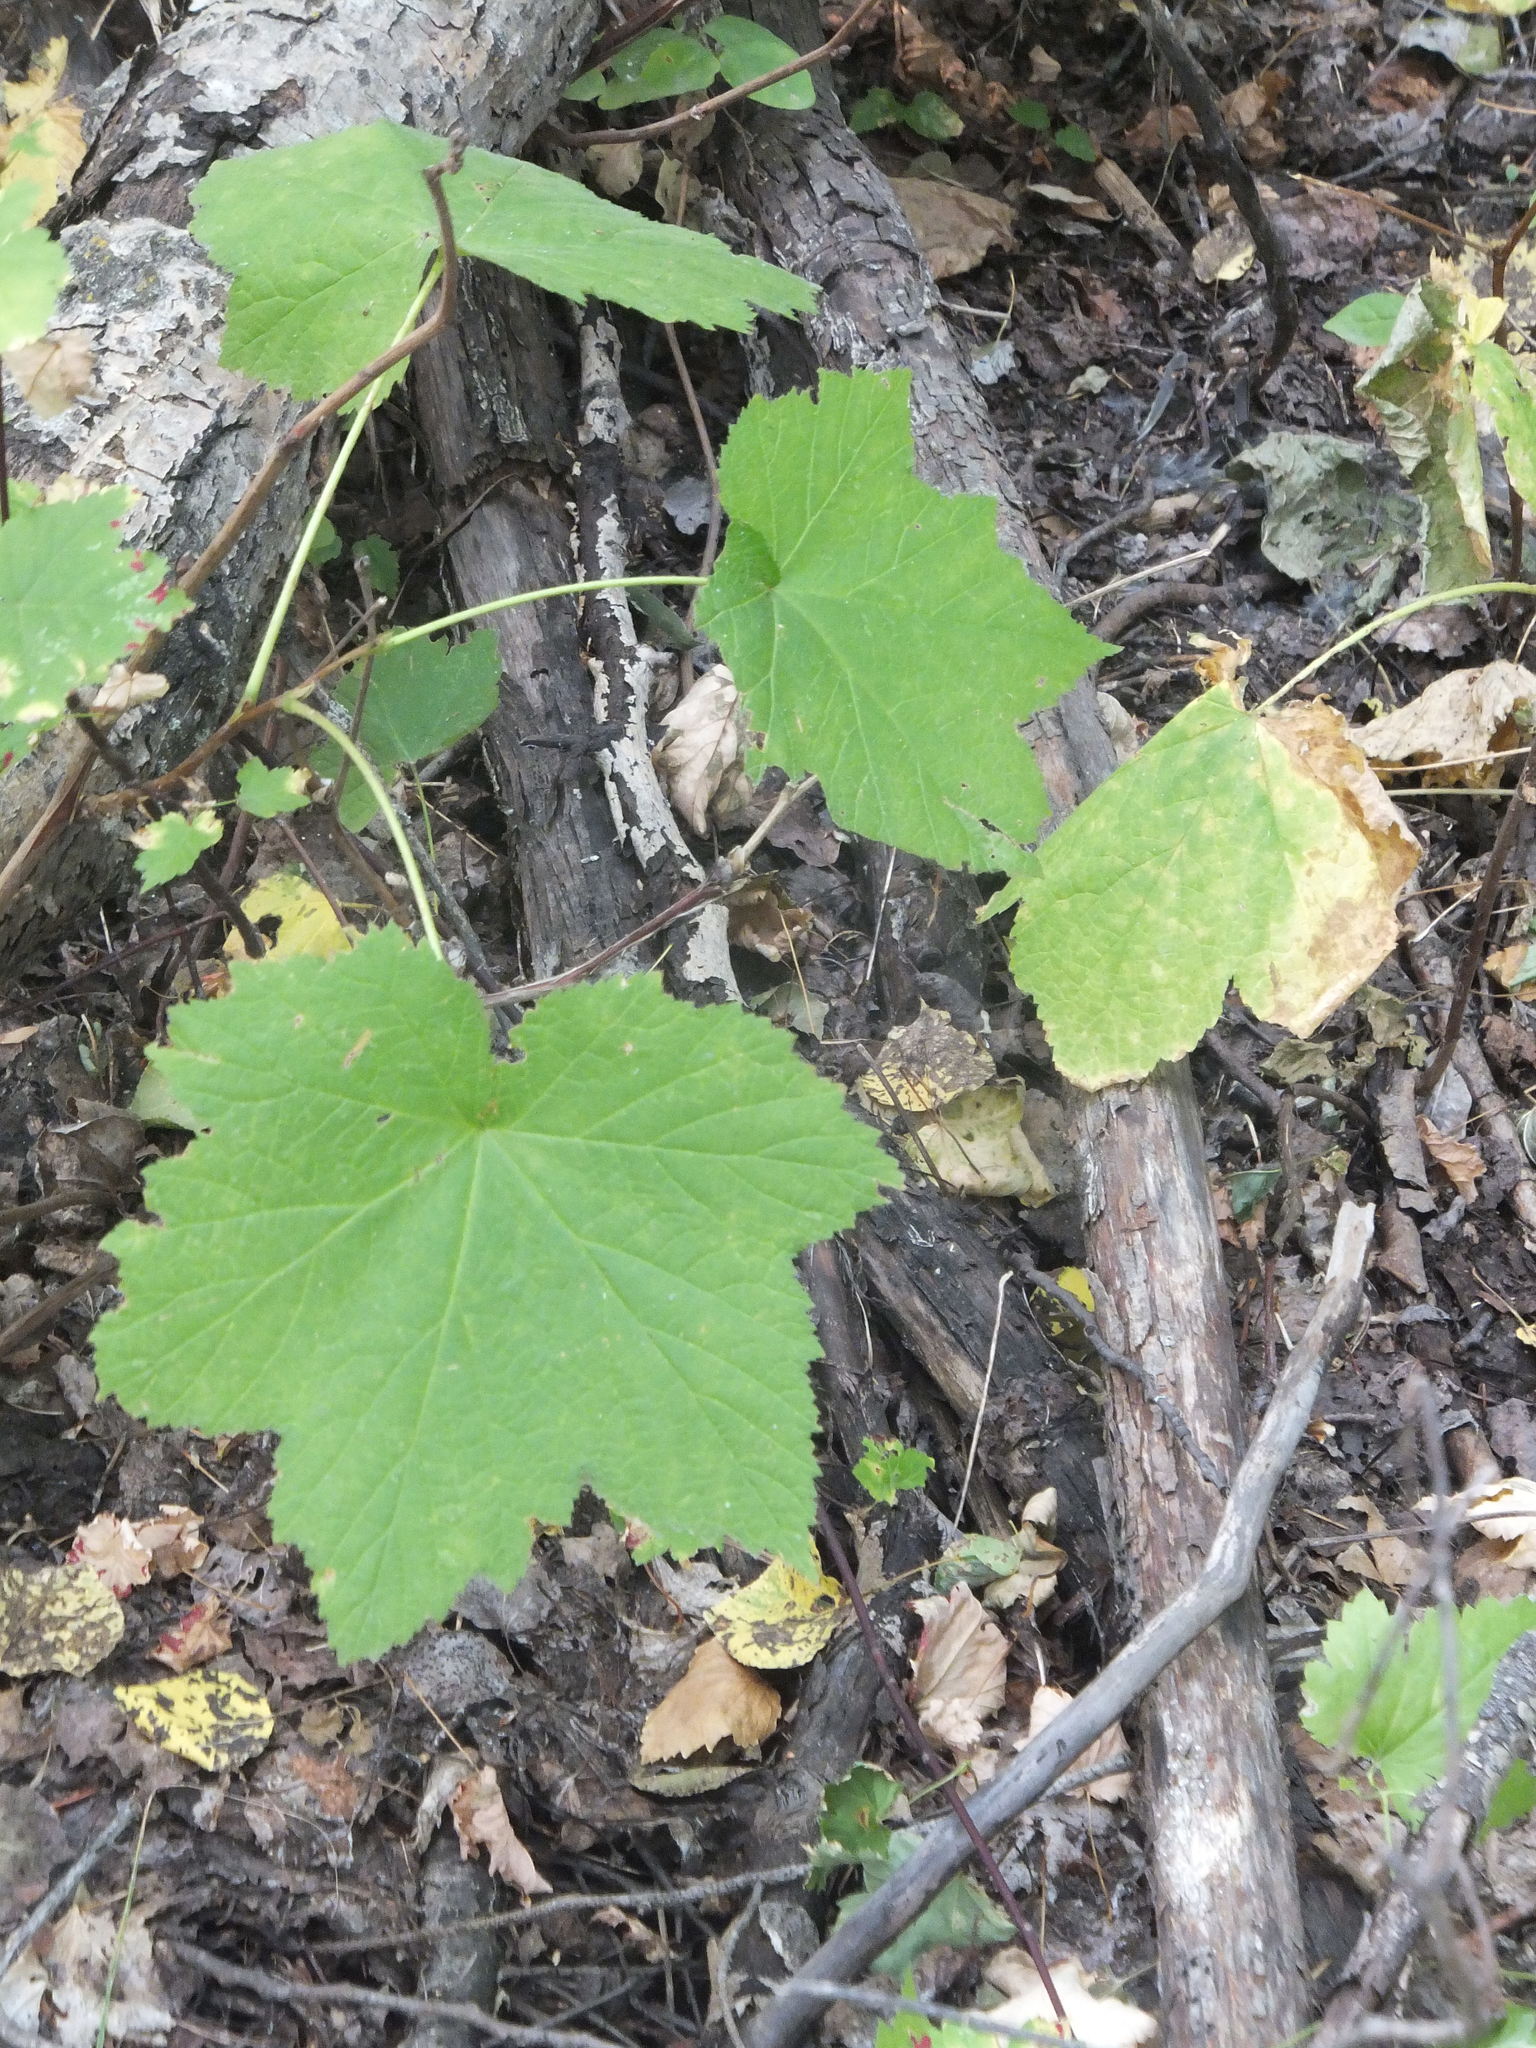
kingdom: Plantae
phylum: Tracheophyta
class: Magnoliopsida
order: Rosales
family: Rosaceae
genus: Rubus
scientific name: Rubus parviflorus
